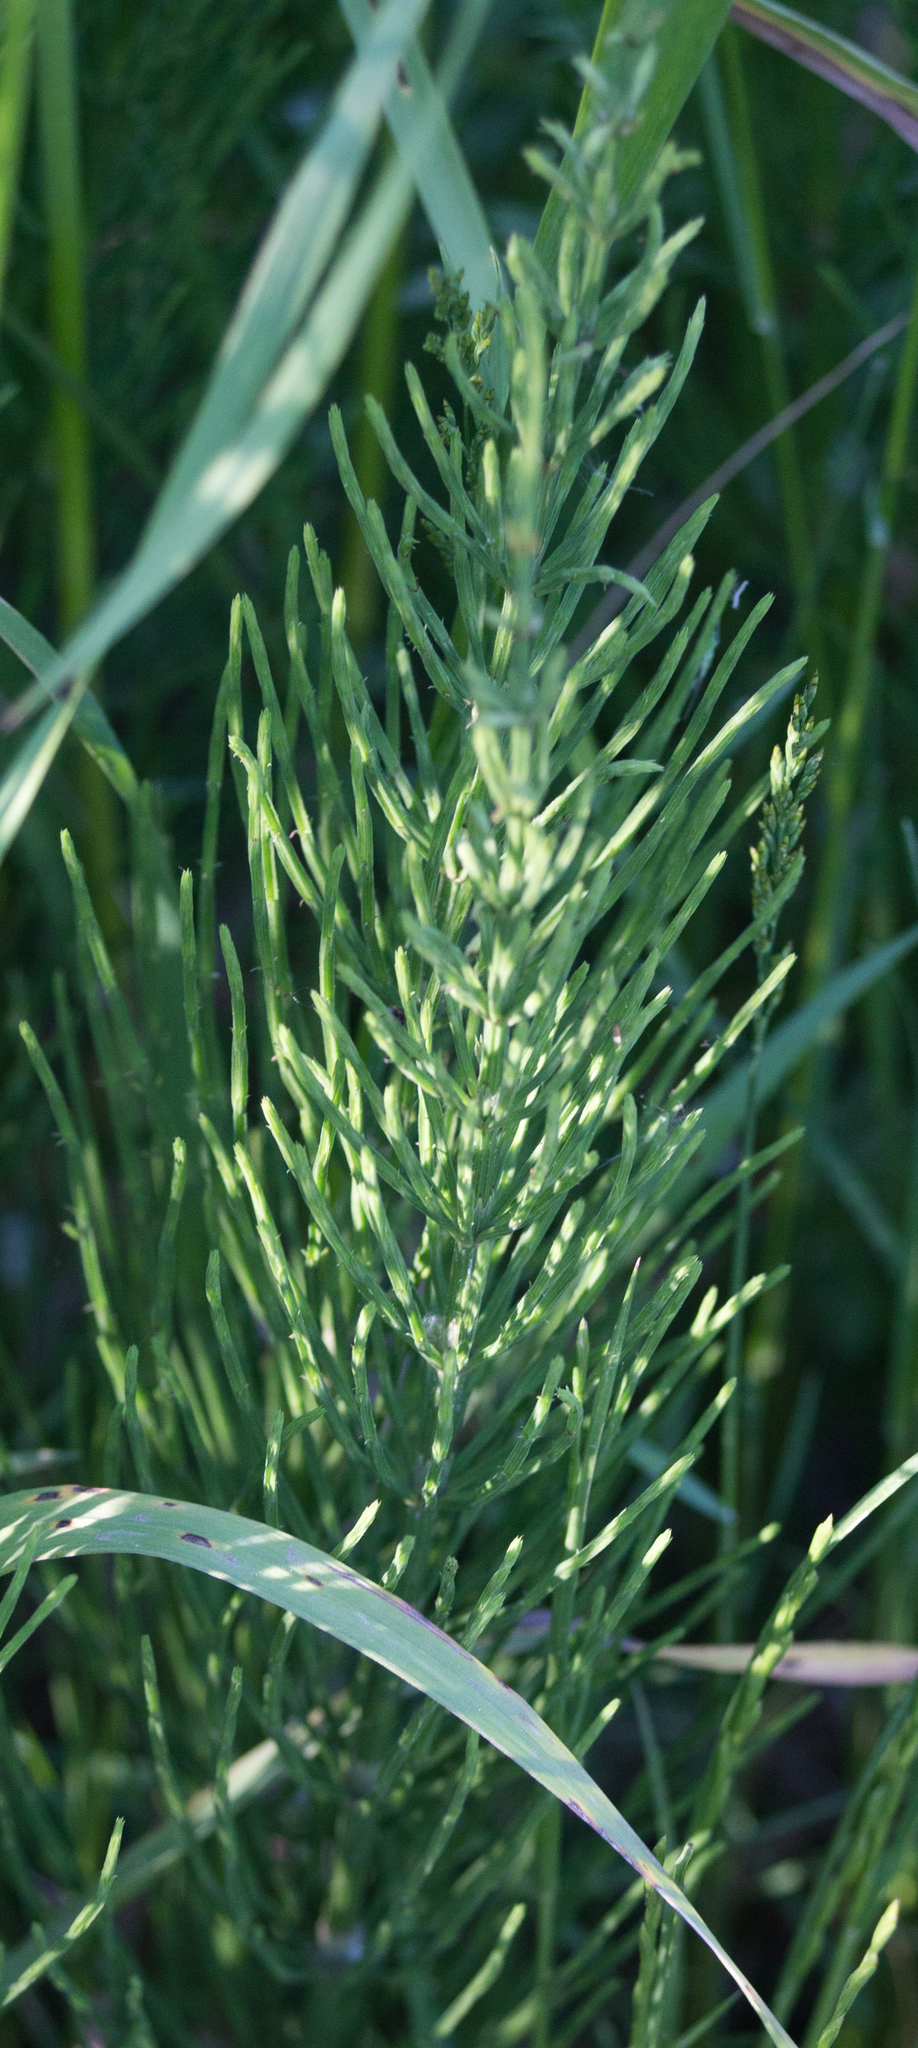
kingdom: Plantae
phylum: Tracheophyta
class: Polypodiopsida
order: Equisetales
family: Equisetaceae
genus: Equisetum
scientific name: Equisetum arvense
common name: Field horsetail
